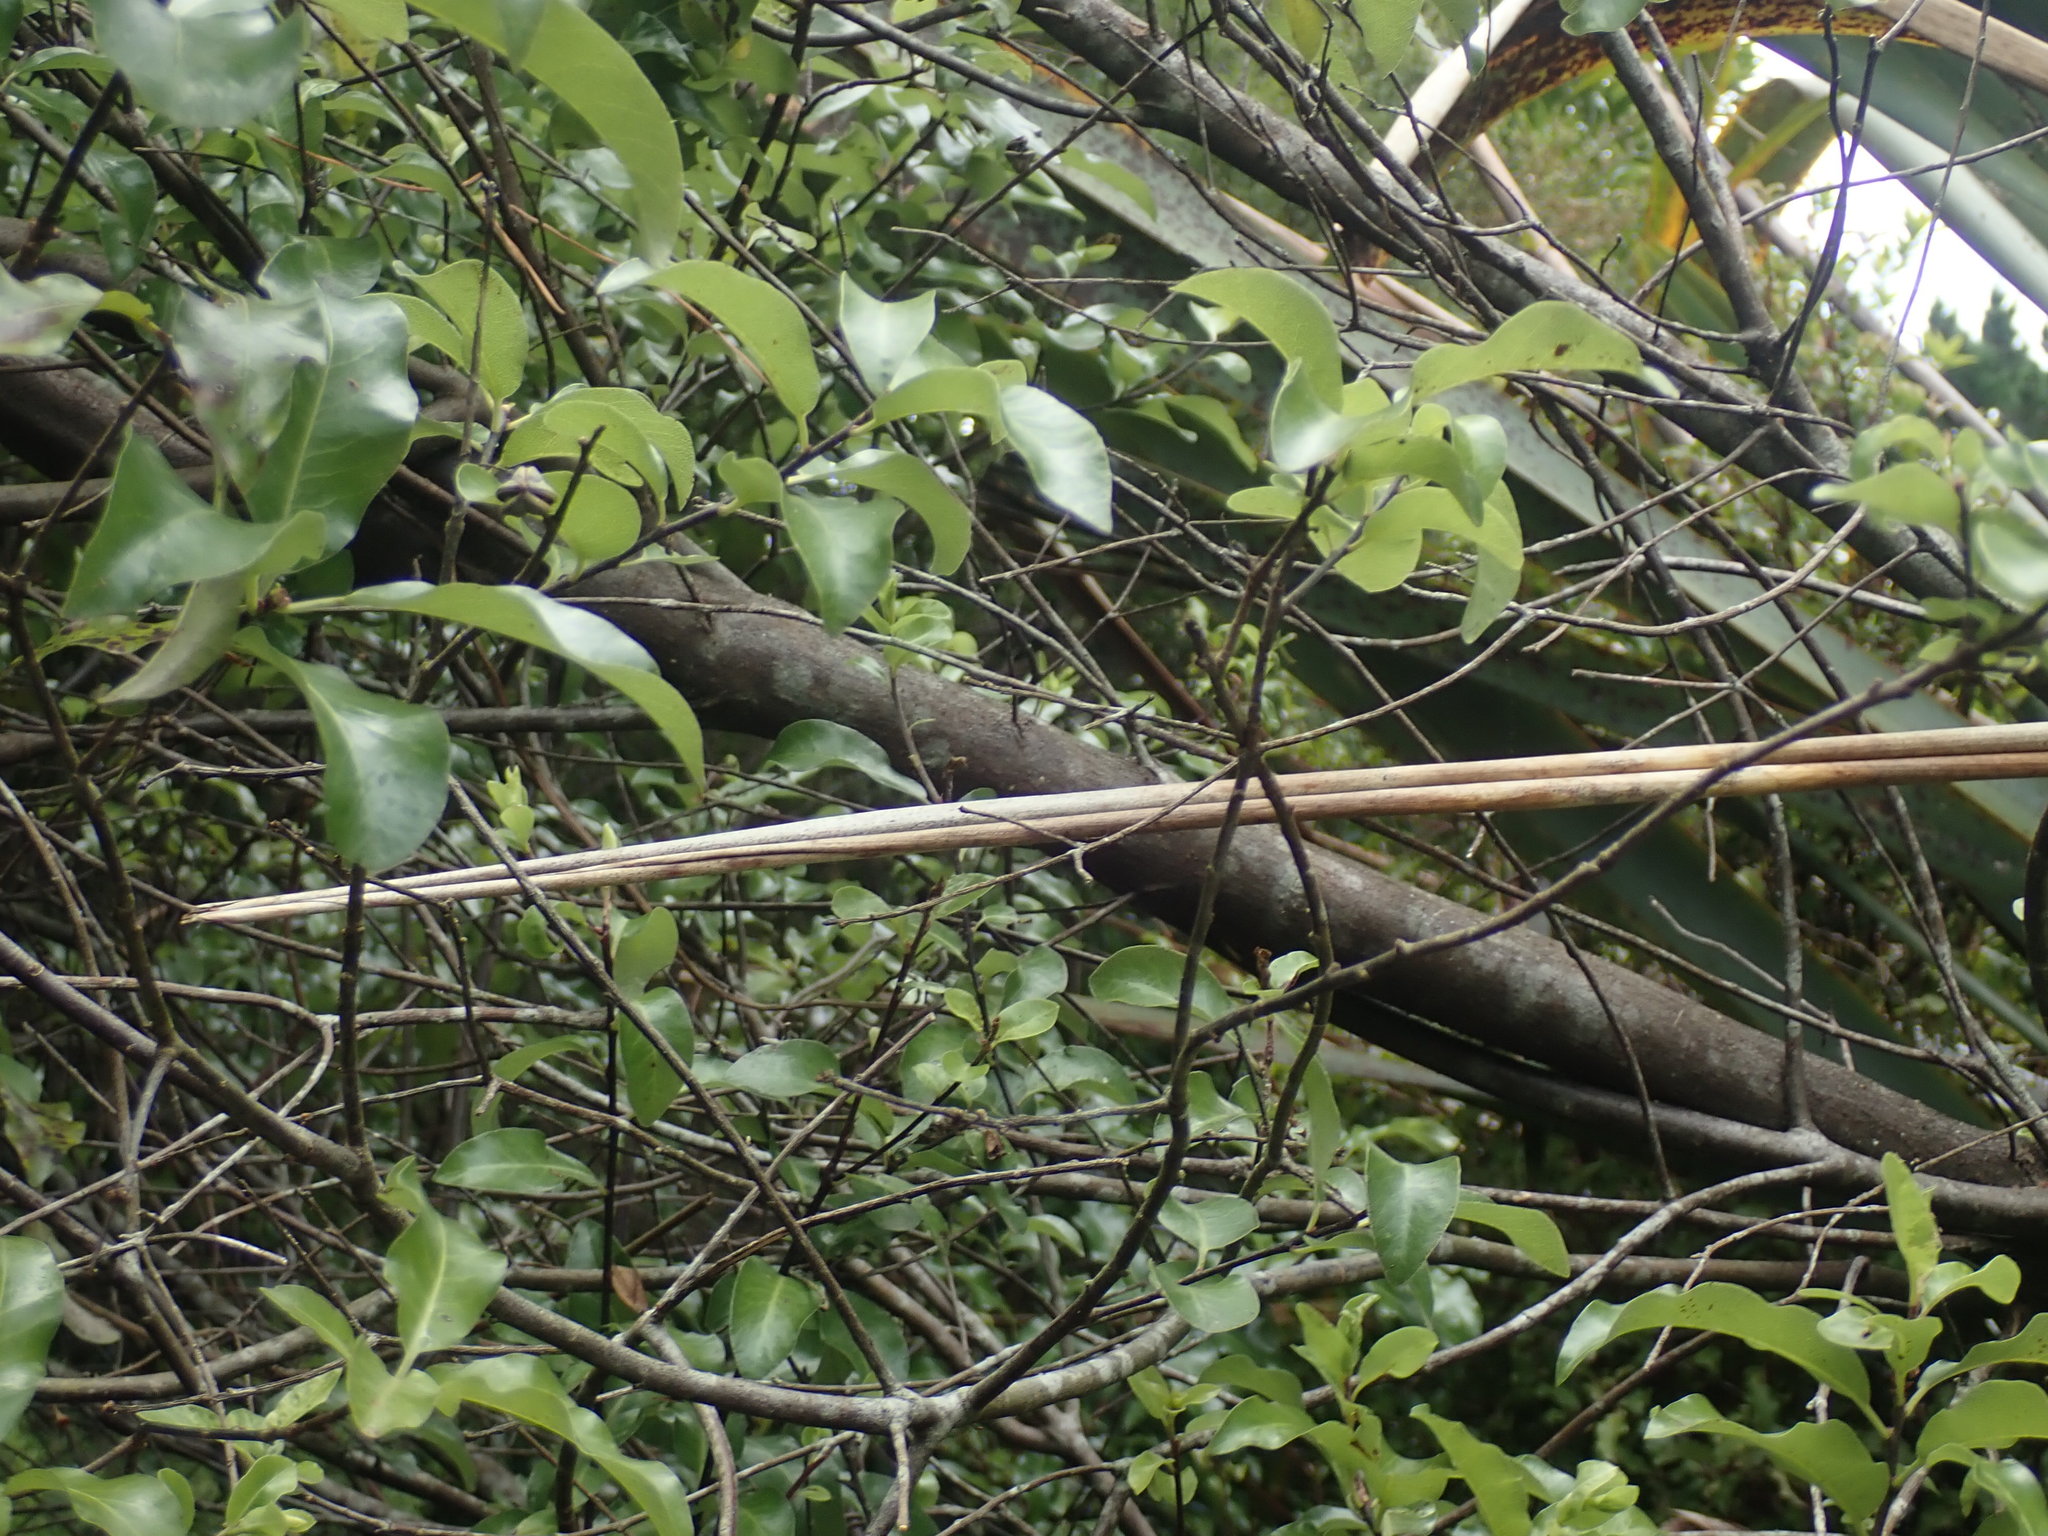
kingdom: Plantae
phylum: Tracheophyta
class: Magnoliopsida
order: Apiales
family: Pittosporaceae
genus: Pittosporum
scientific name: Pittosporum tenuifolium
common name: Kohuhu
